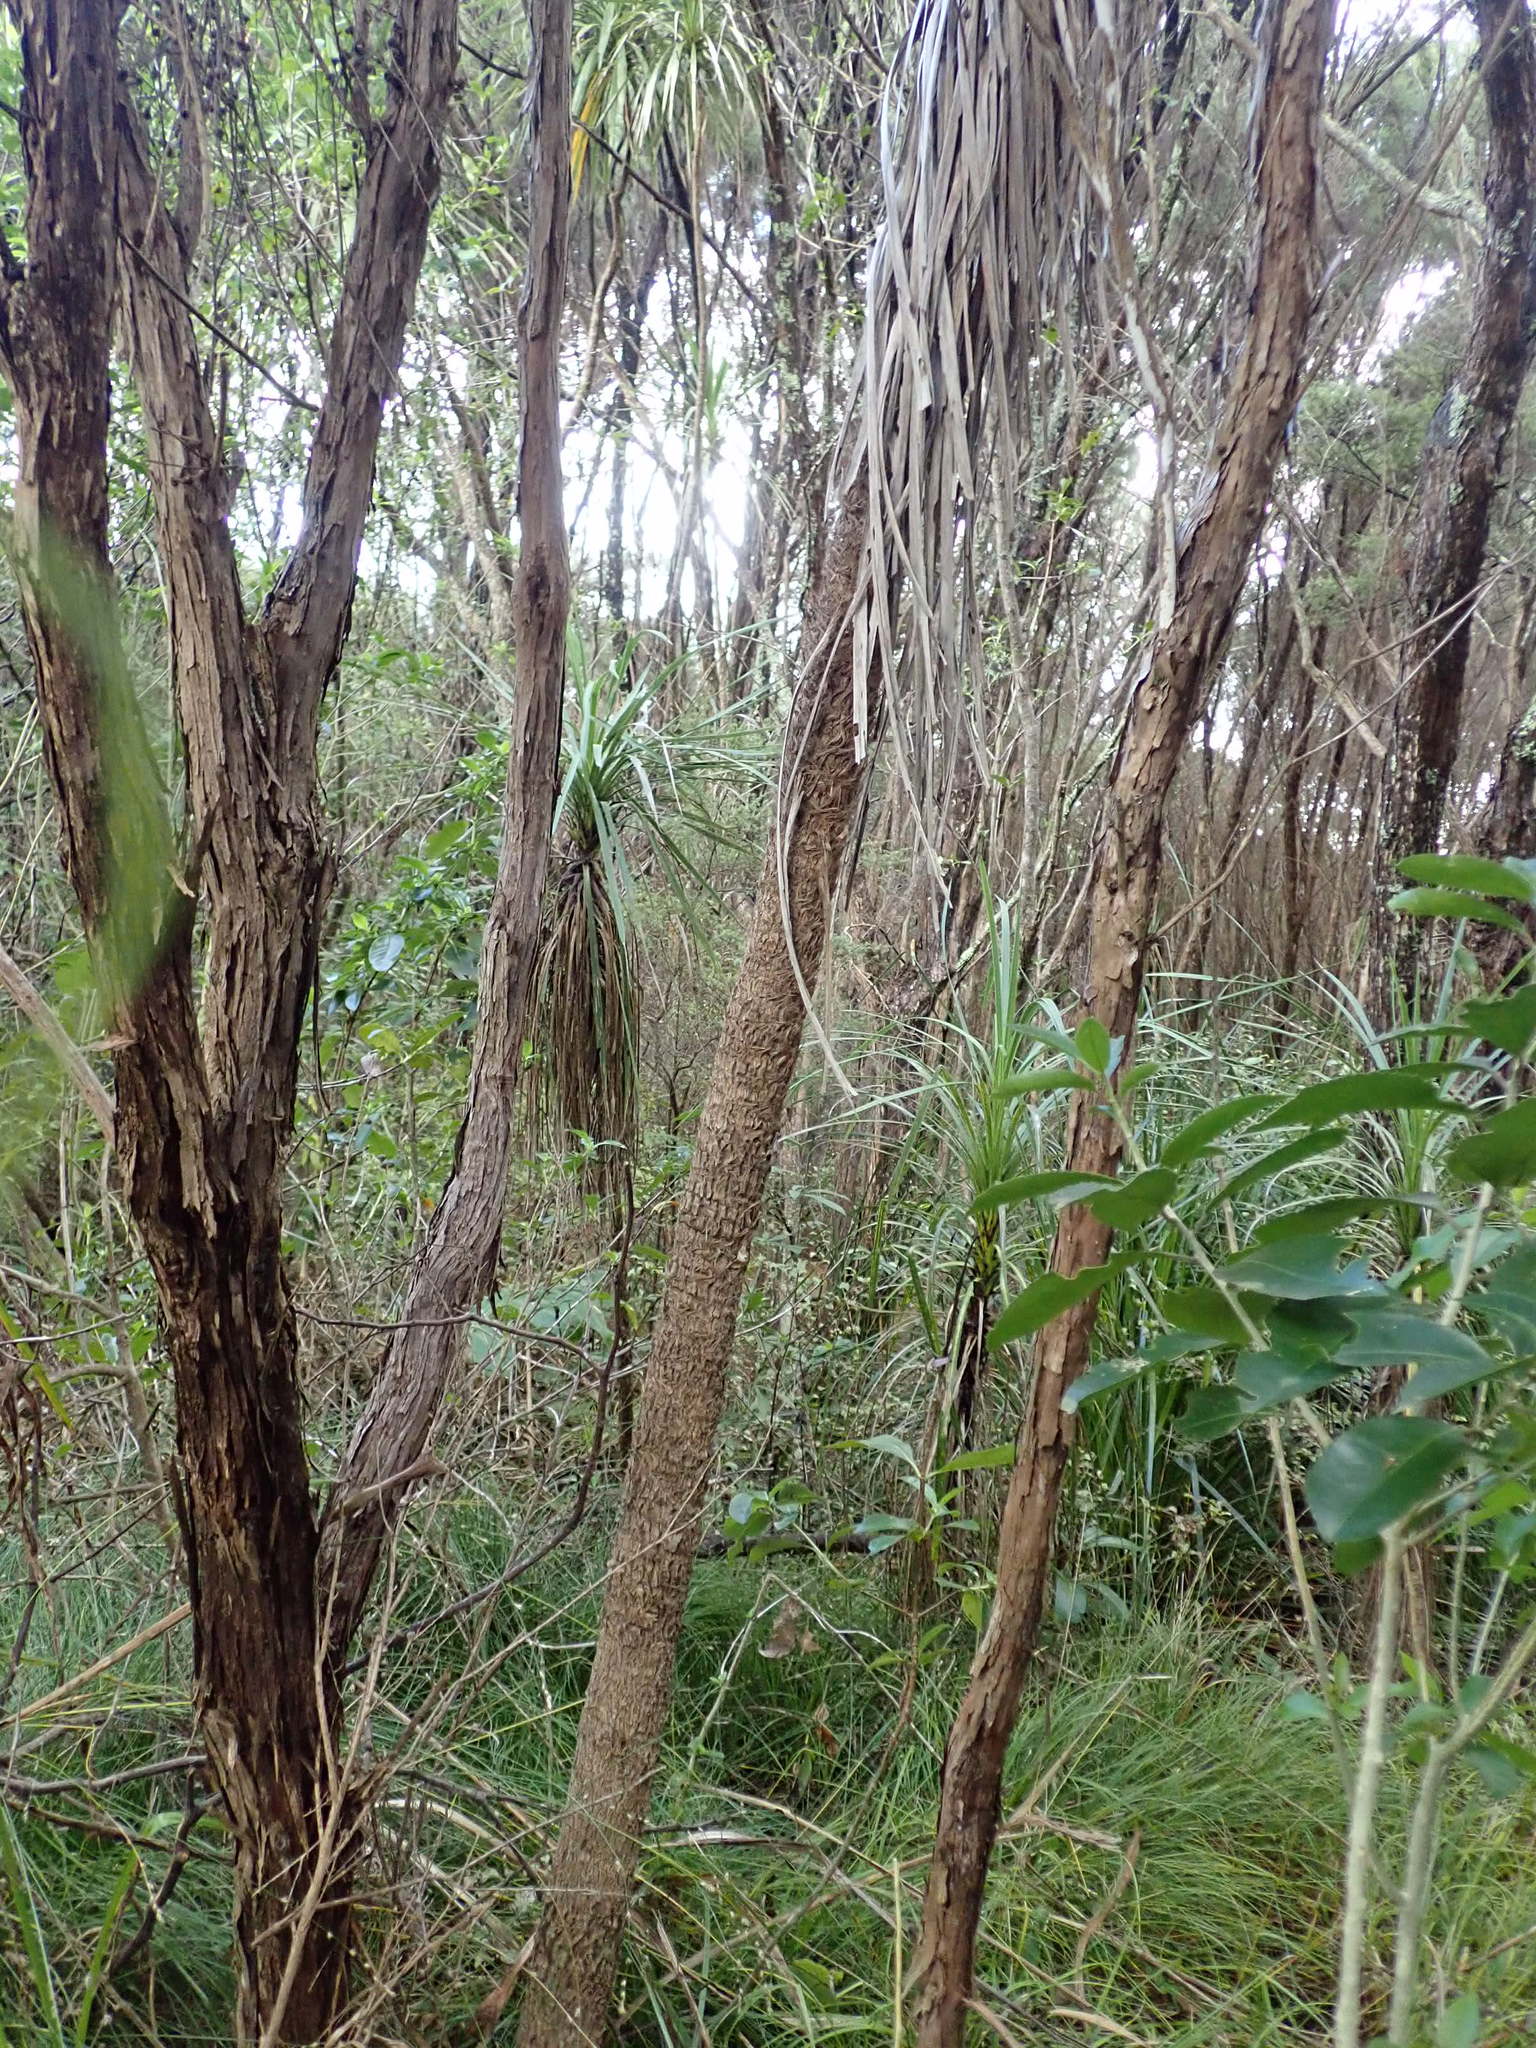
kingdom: Plantae
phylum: Tracheophyta
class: Liliopsida
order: Asparagales
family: Asparagaceae
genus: Cordyline
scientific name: Cordyline australis
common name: Cabbage-palm
